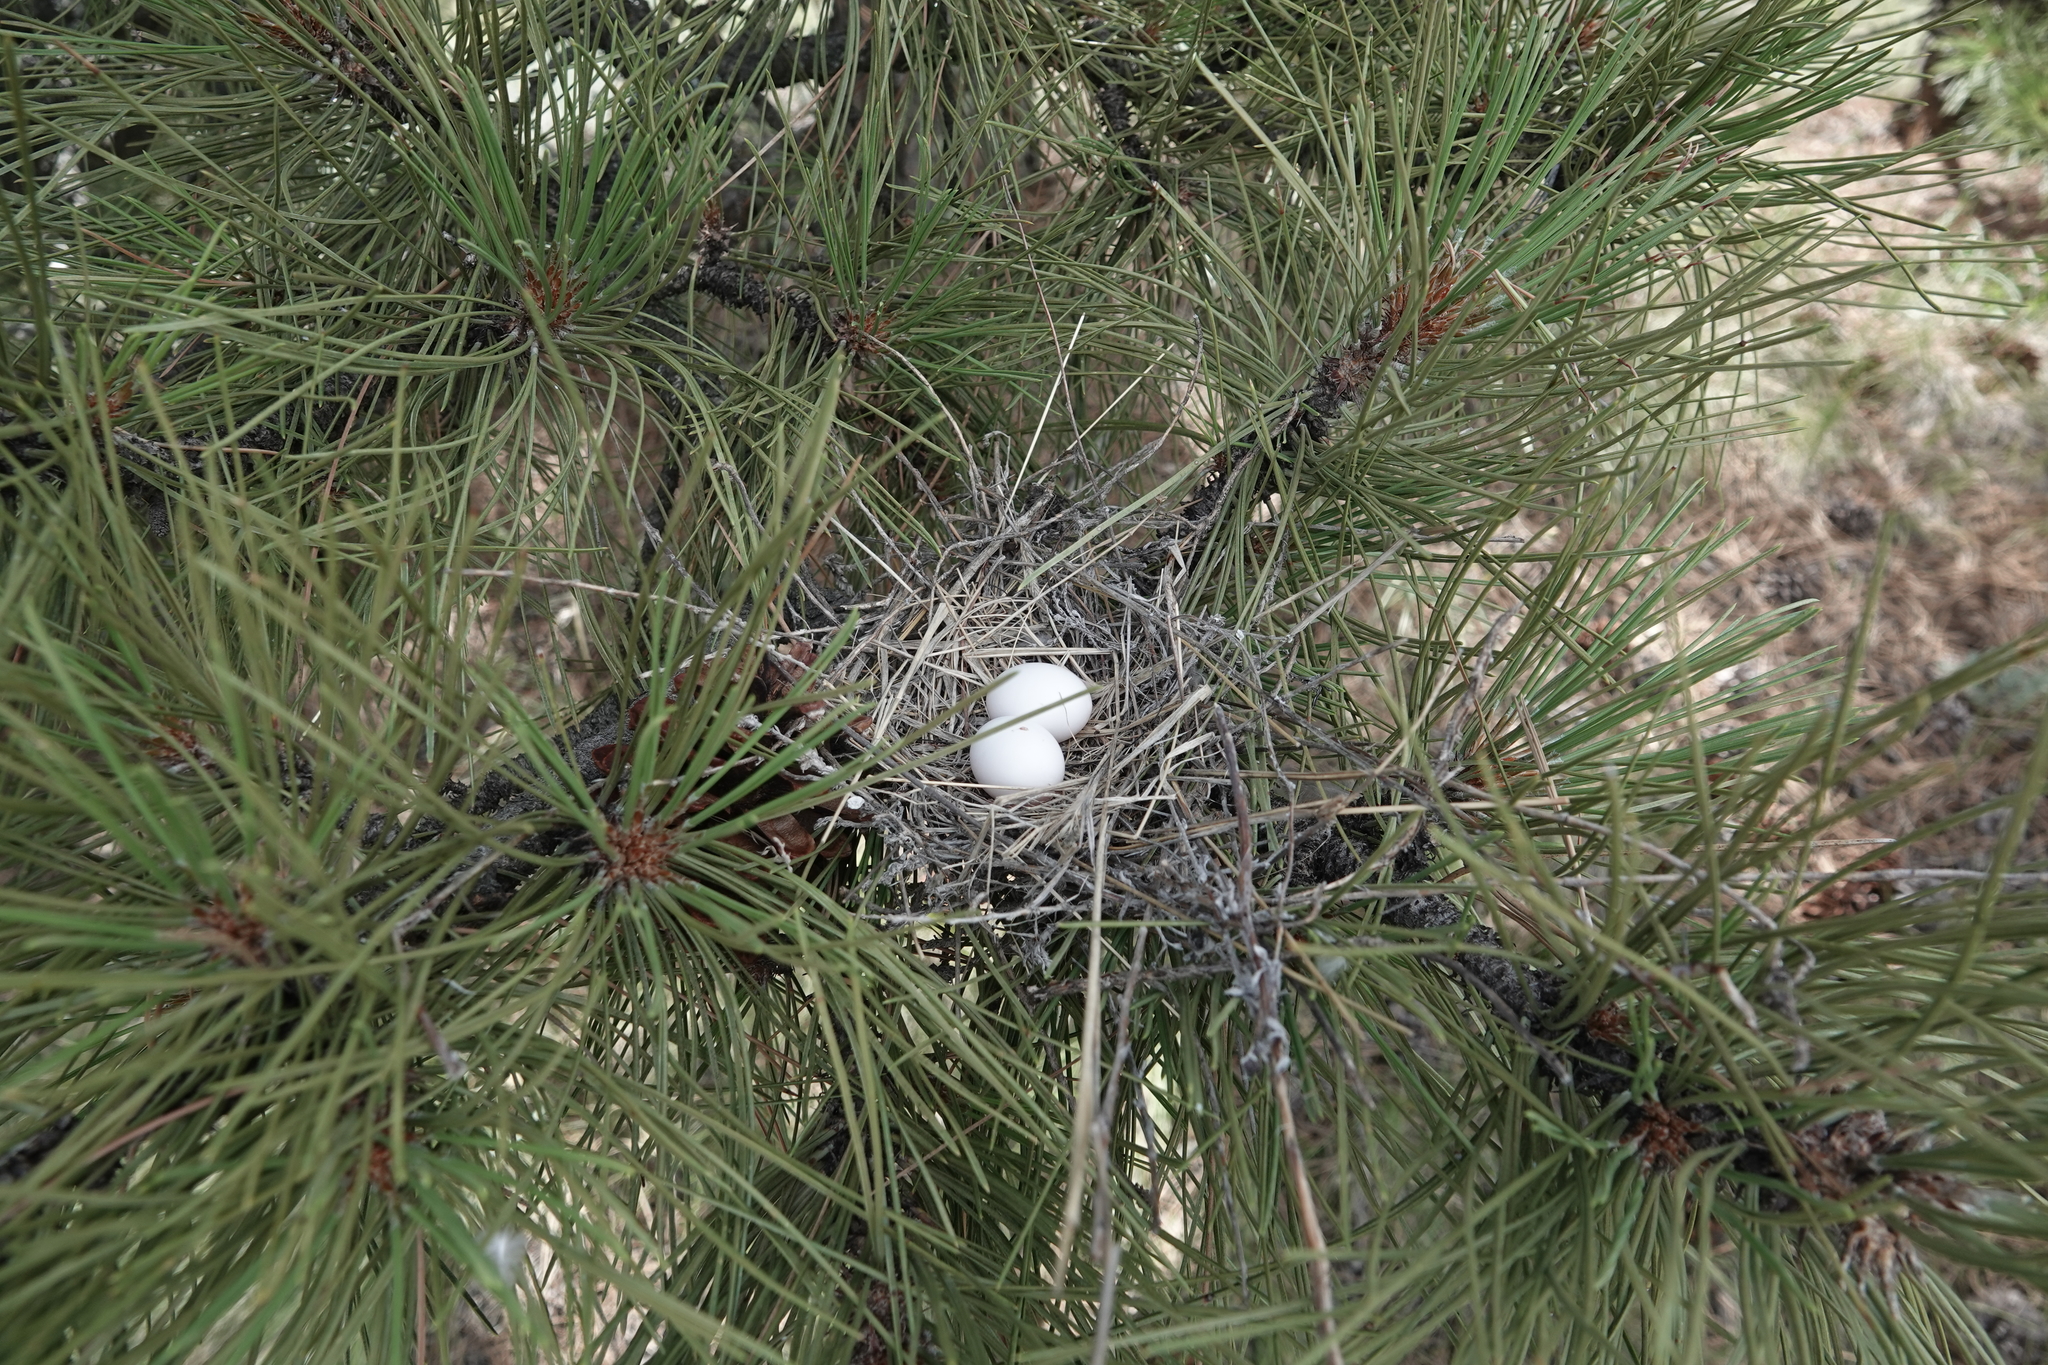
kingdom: Animalia
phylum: Chordata
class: Aves
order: Columbiformes
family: Columbidae
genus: Zenaida
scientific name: Zenaida macroura
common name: Mourning dove
